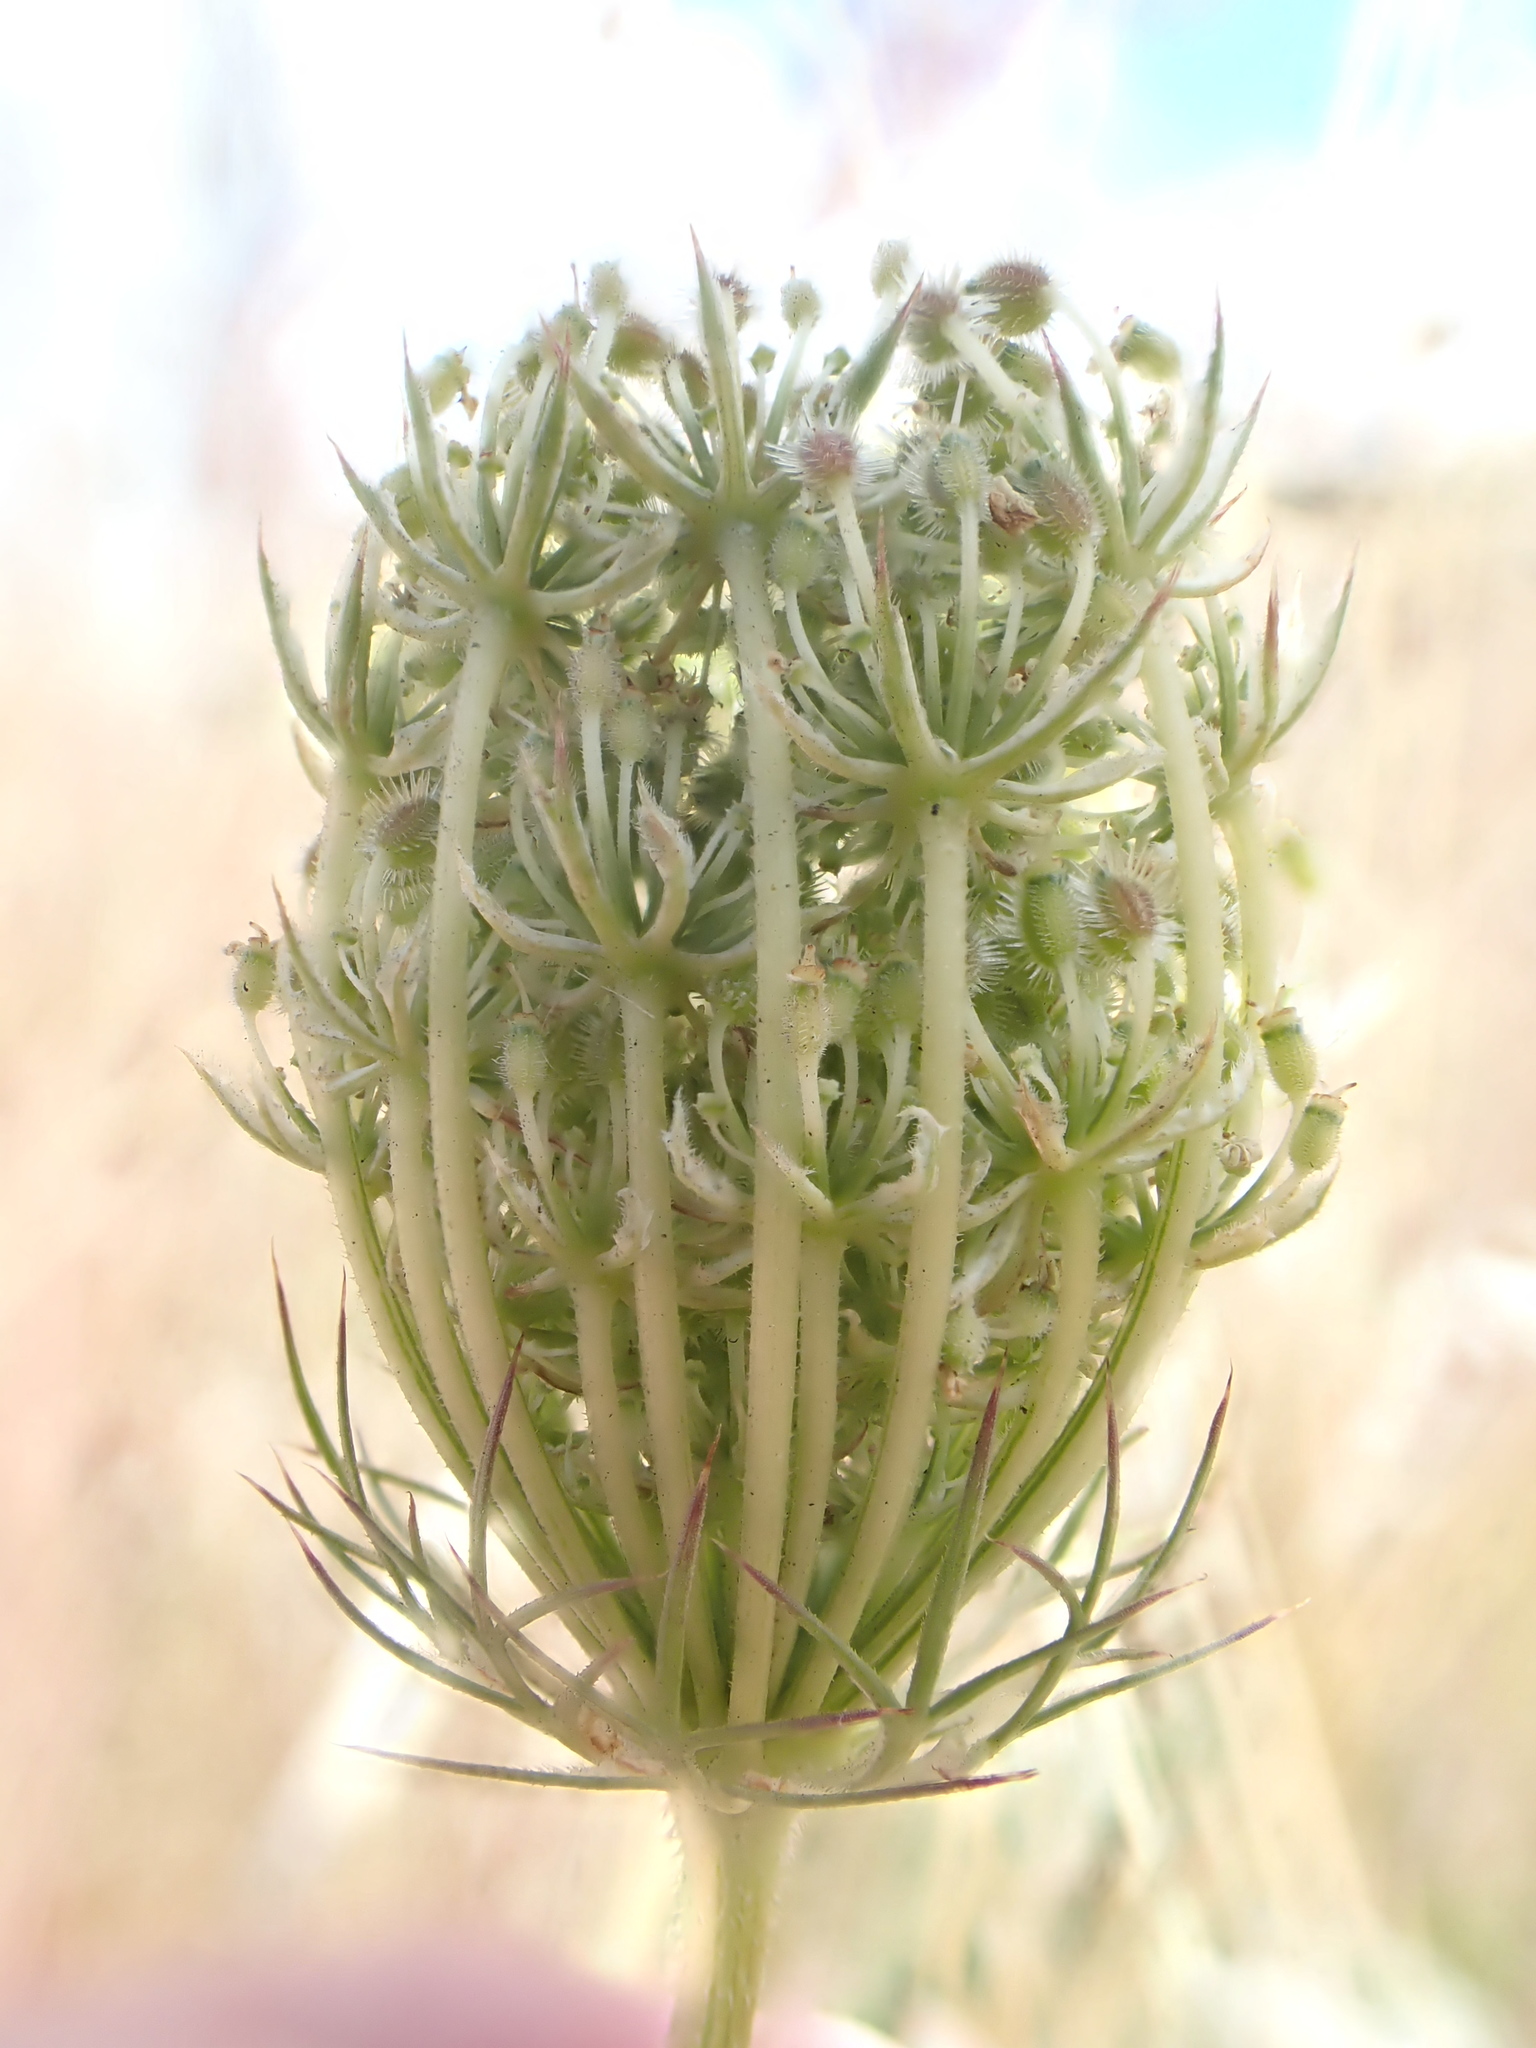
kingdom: Plantae
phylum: Tracheophyta
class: Magnoliopsida
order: Apiales
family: Apiaceae
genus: Daucus
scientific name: Daucus carota
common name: Wild carrot
